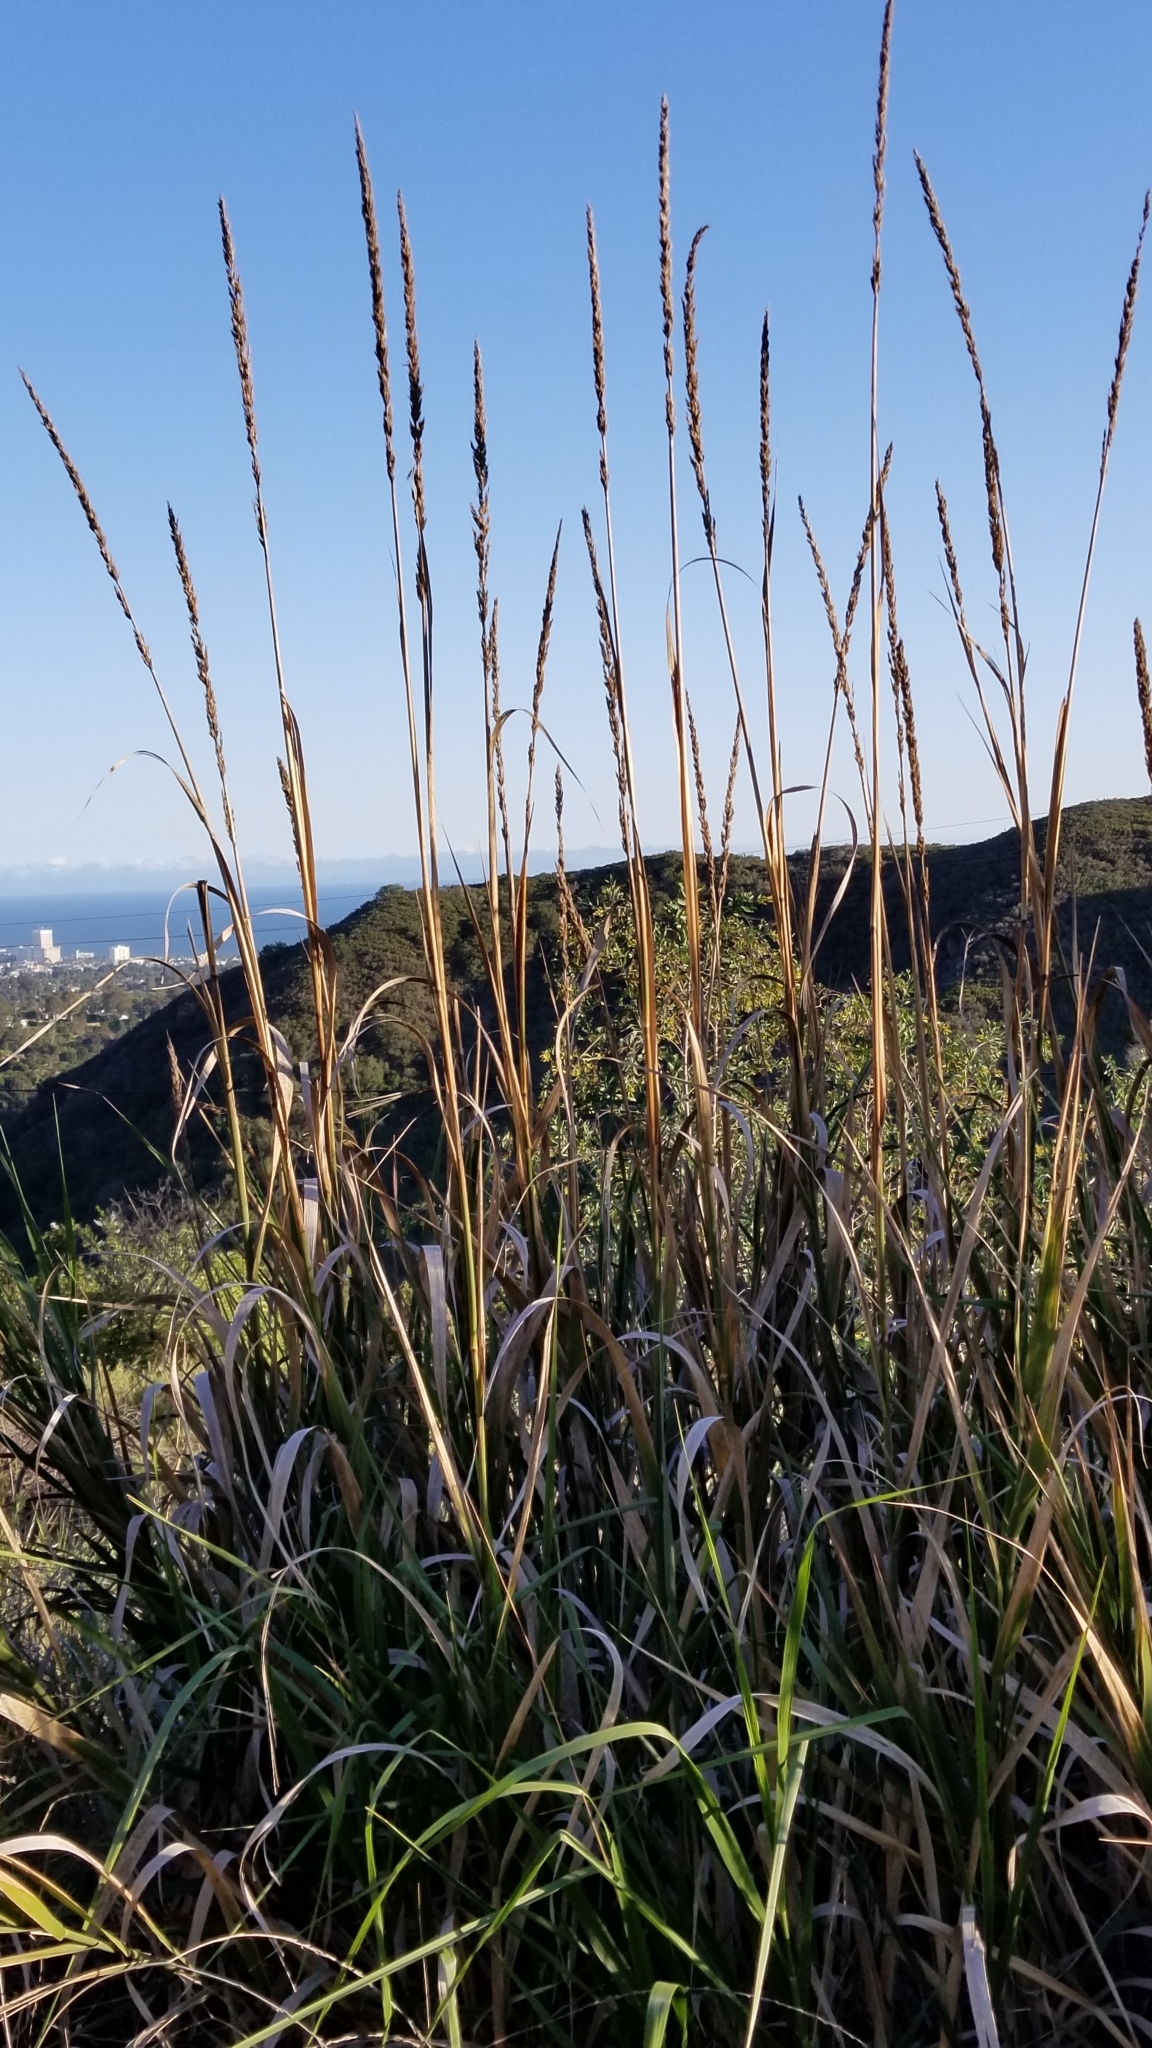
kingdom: Plantae
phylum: Tracheophyta
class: Liliopsida
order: Poales
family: Poaceae
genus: Leymus
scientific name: Leymus condensatus
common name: Giant wild rye
